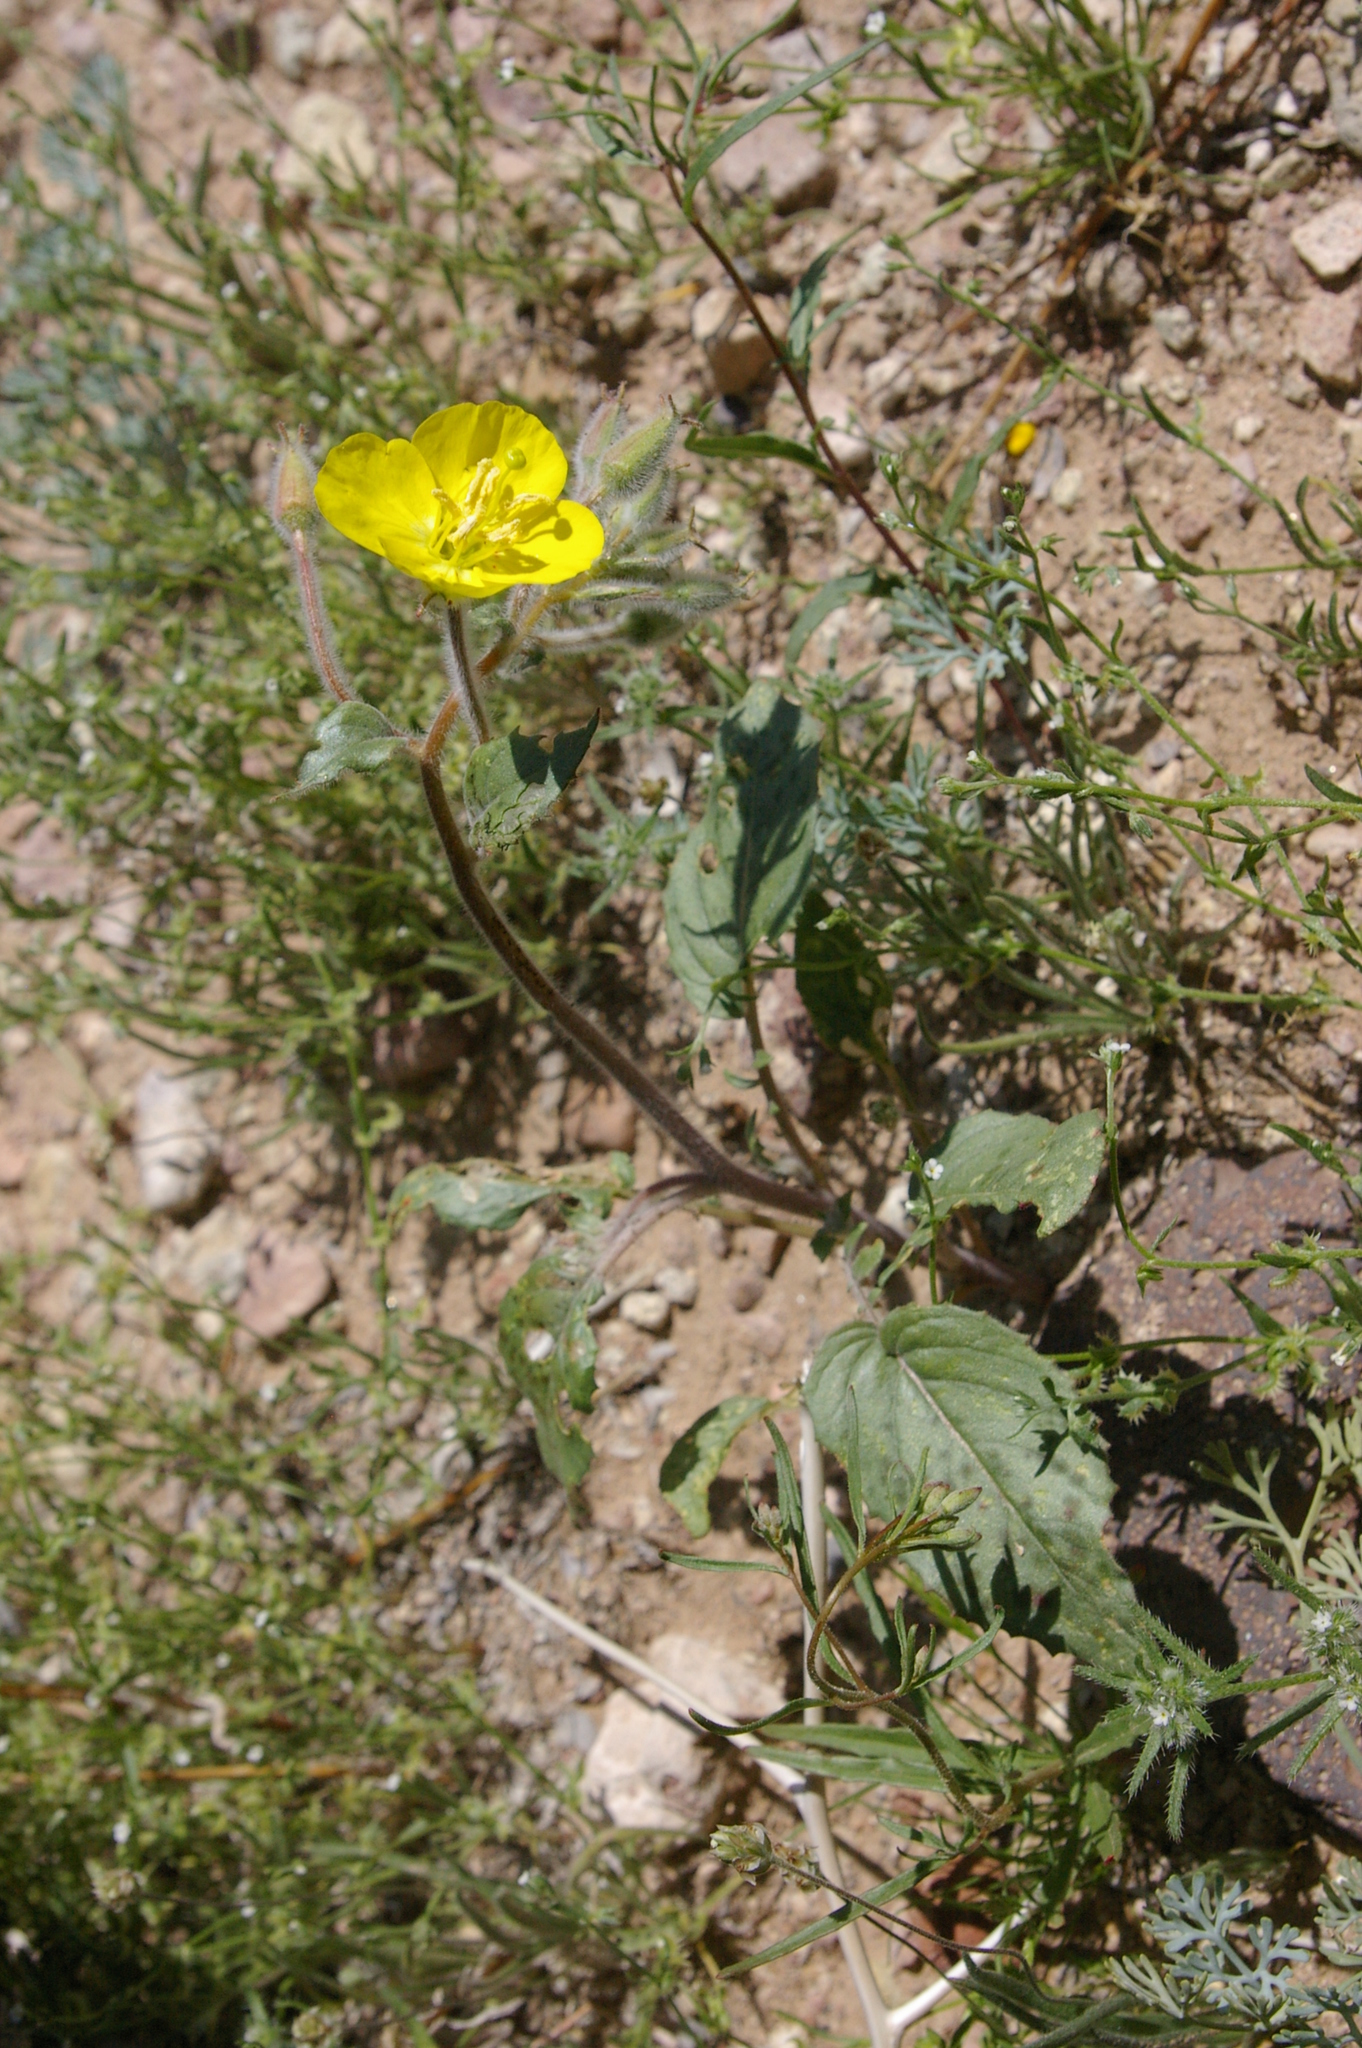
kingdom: Plantae
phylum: Tracheophyta
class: Magnoliopsida
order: Myrtales
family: Onagraceae
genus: Chylismia
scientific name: Chylismia brevipes
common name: Yellow cups
